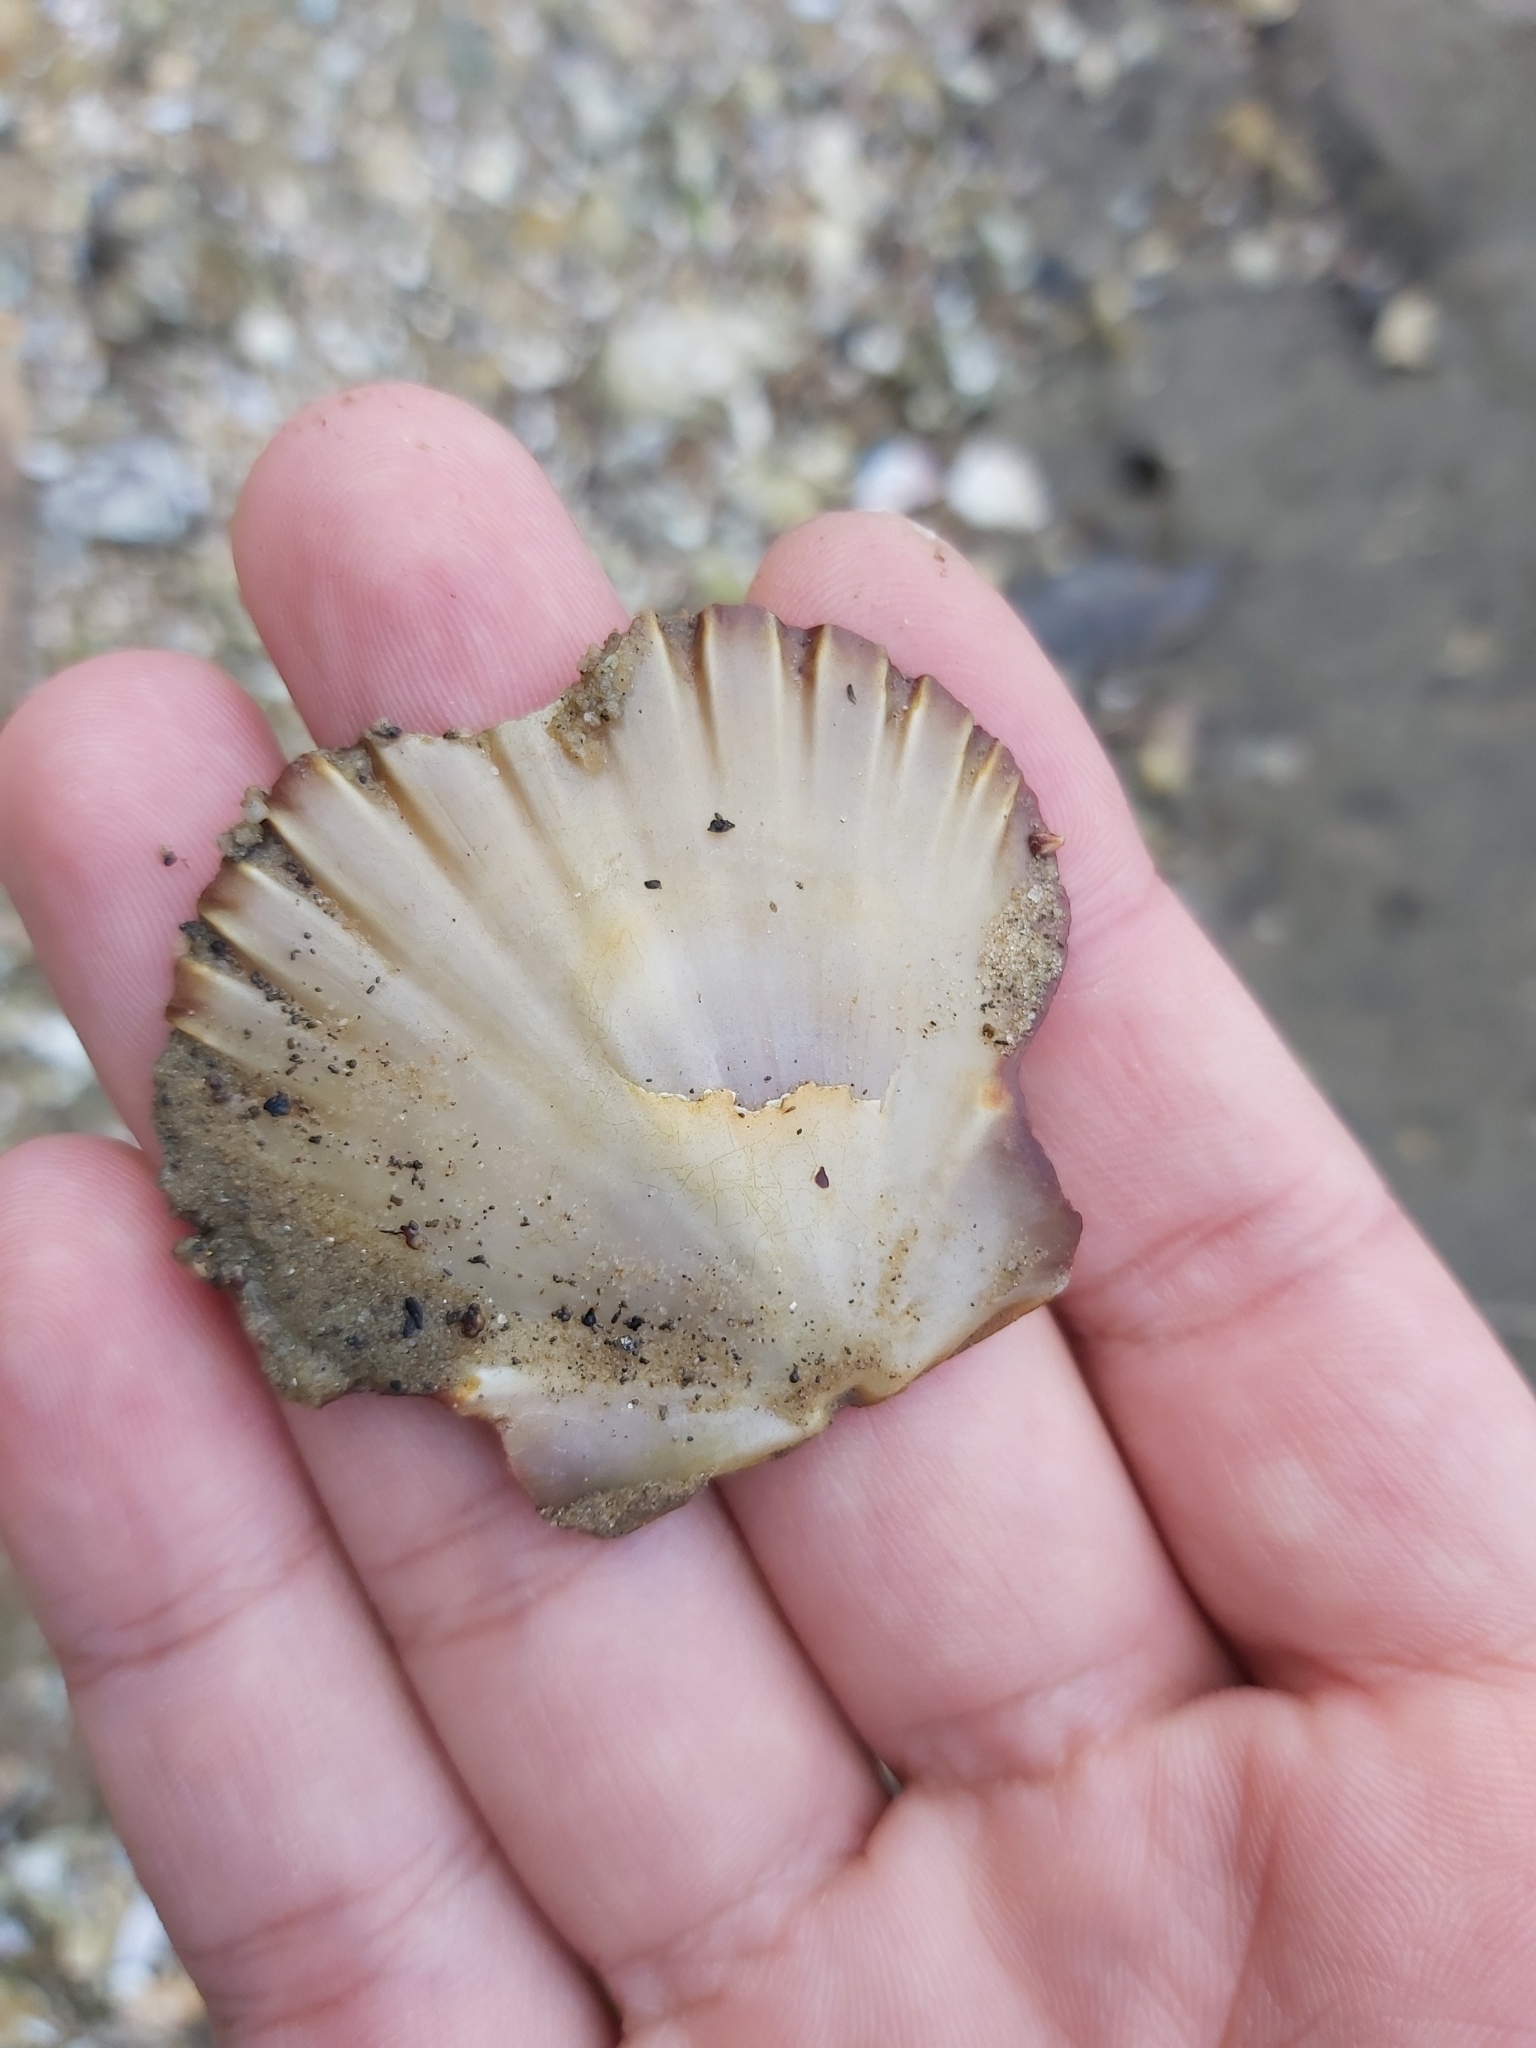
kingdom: Animalia
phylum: Mollusca
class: Bivalvia
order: Pectinida
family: Pectinidae
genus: Pecten
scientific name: Pecten fumatus
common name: Australian scallop
